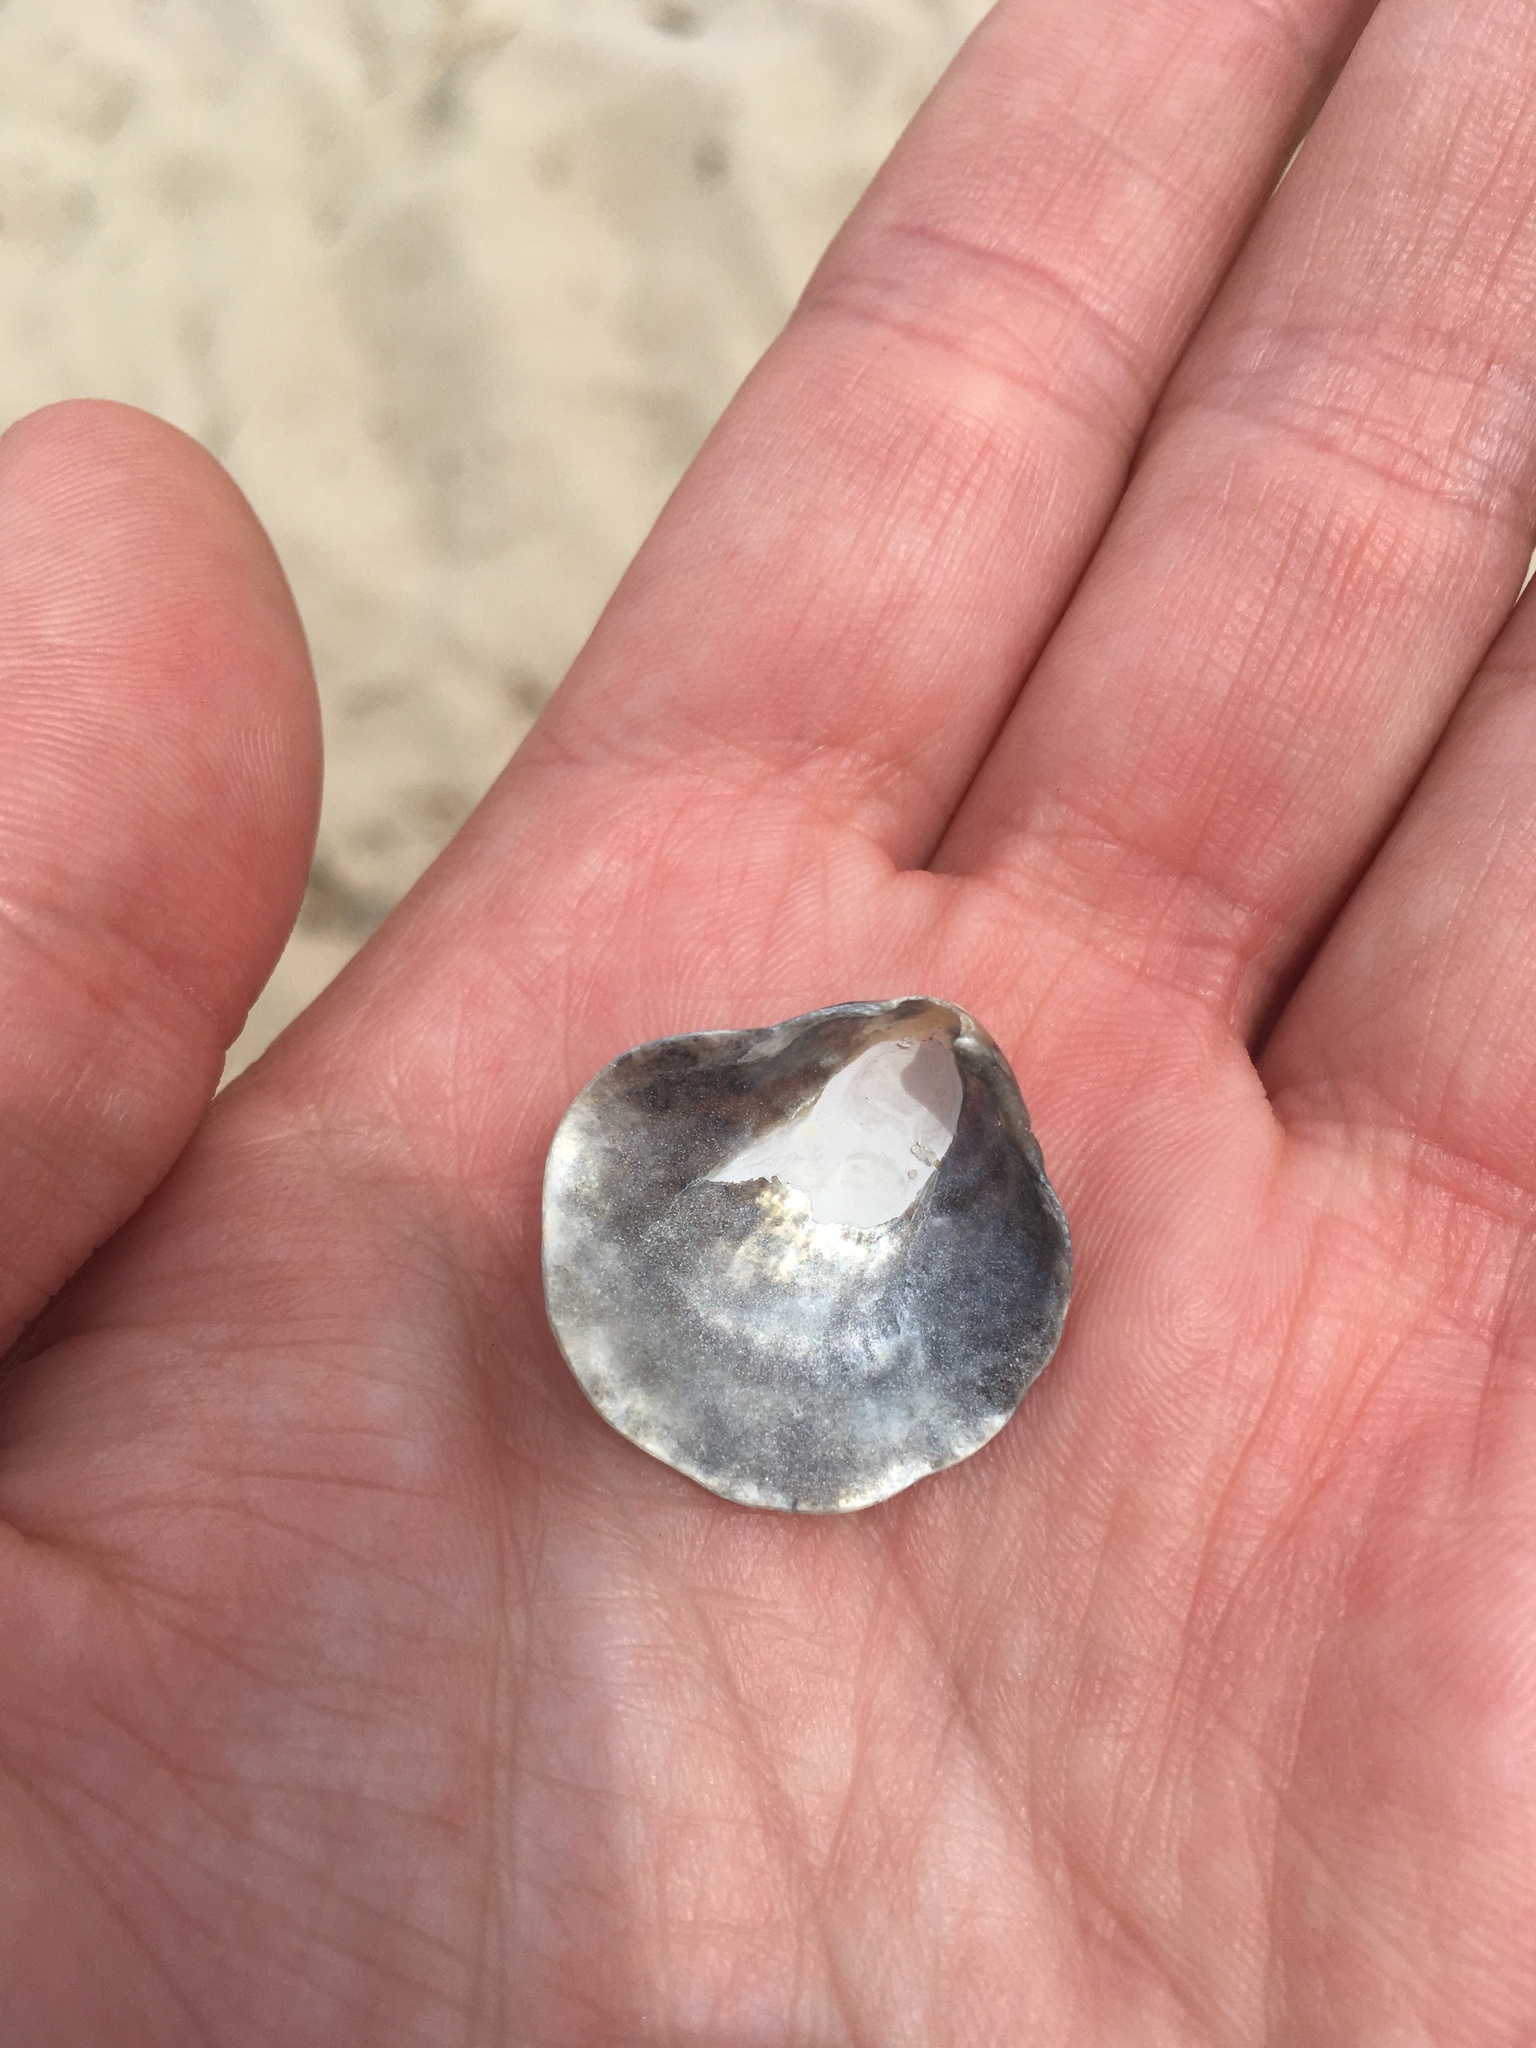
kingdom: Animalia
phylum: Mollusca
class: Bivalvia
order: Pectinida
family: Anomiidae
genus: Anomia
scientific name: Anomia simplex
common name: Common jingle shell
